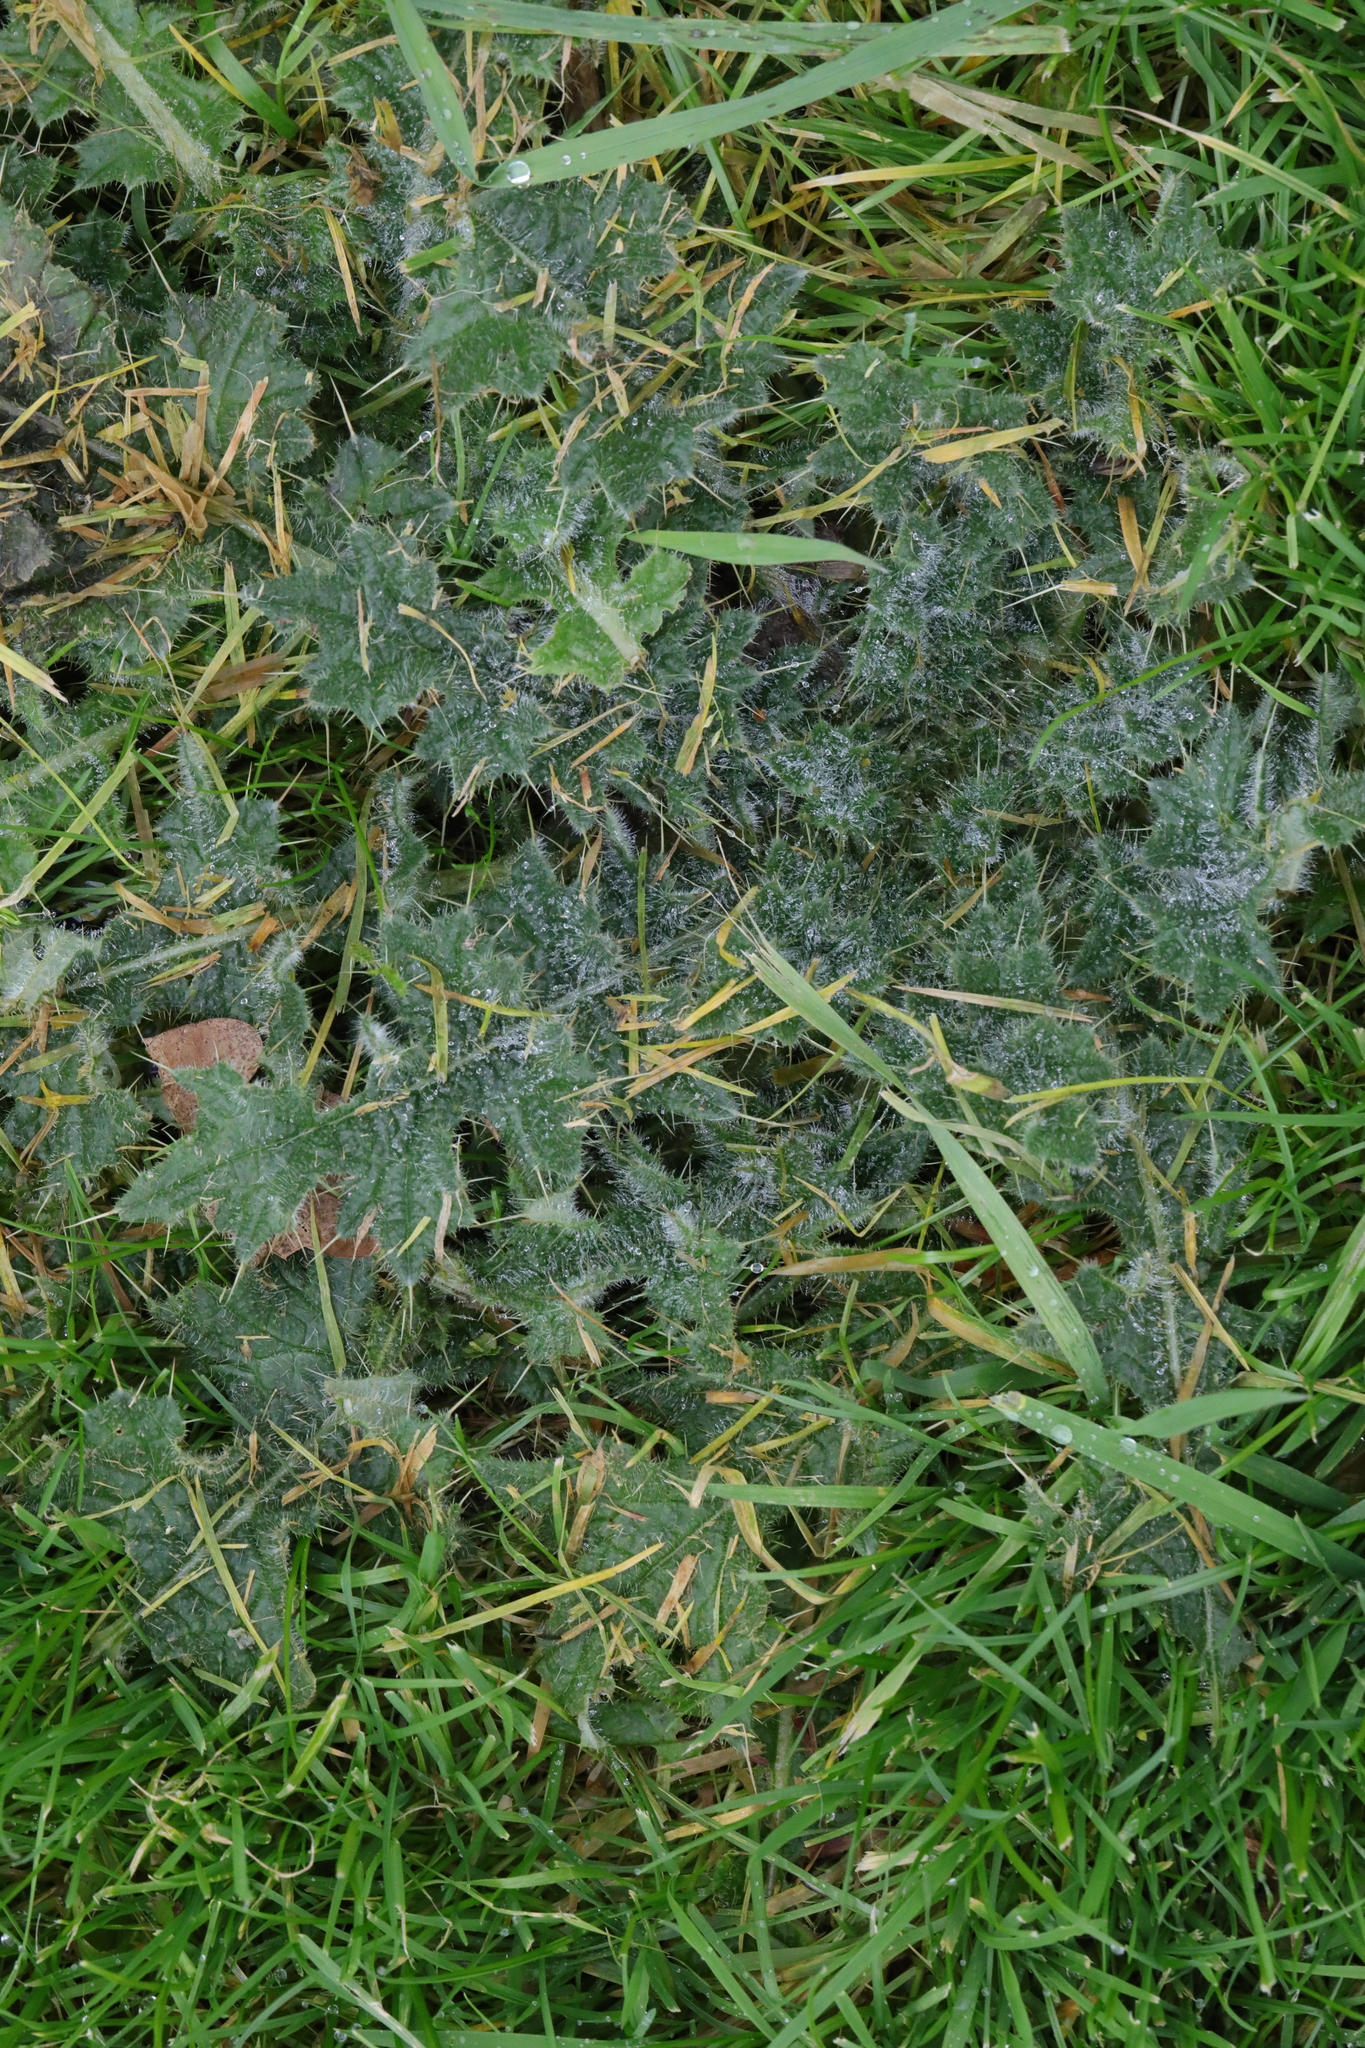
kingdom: Plantae
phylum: Tracheophyta
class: Magnoliopsida
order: Asterales
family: Asteraceae
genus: Cirsium
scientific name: Cirsium vulgare
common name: Bull thistle
